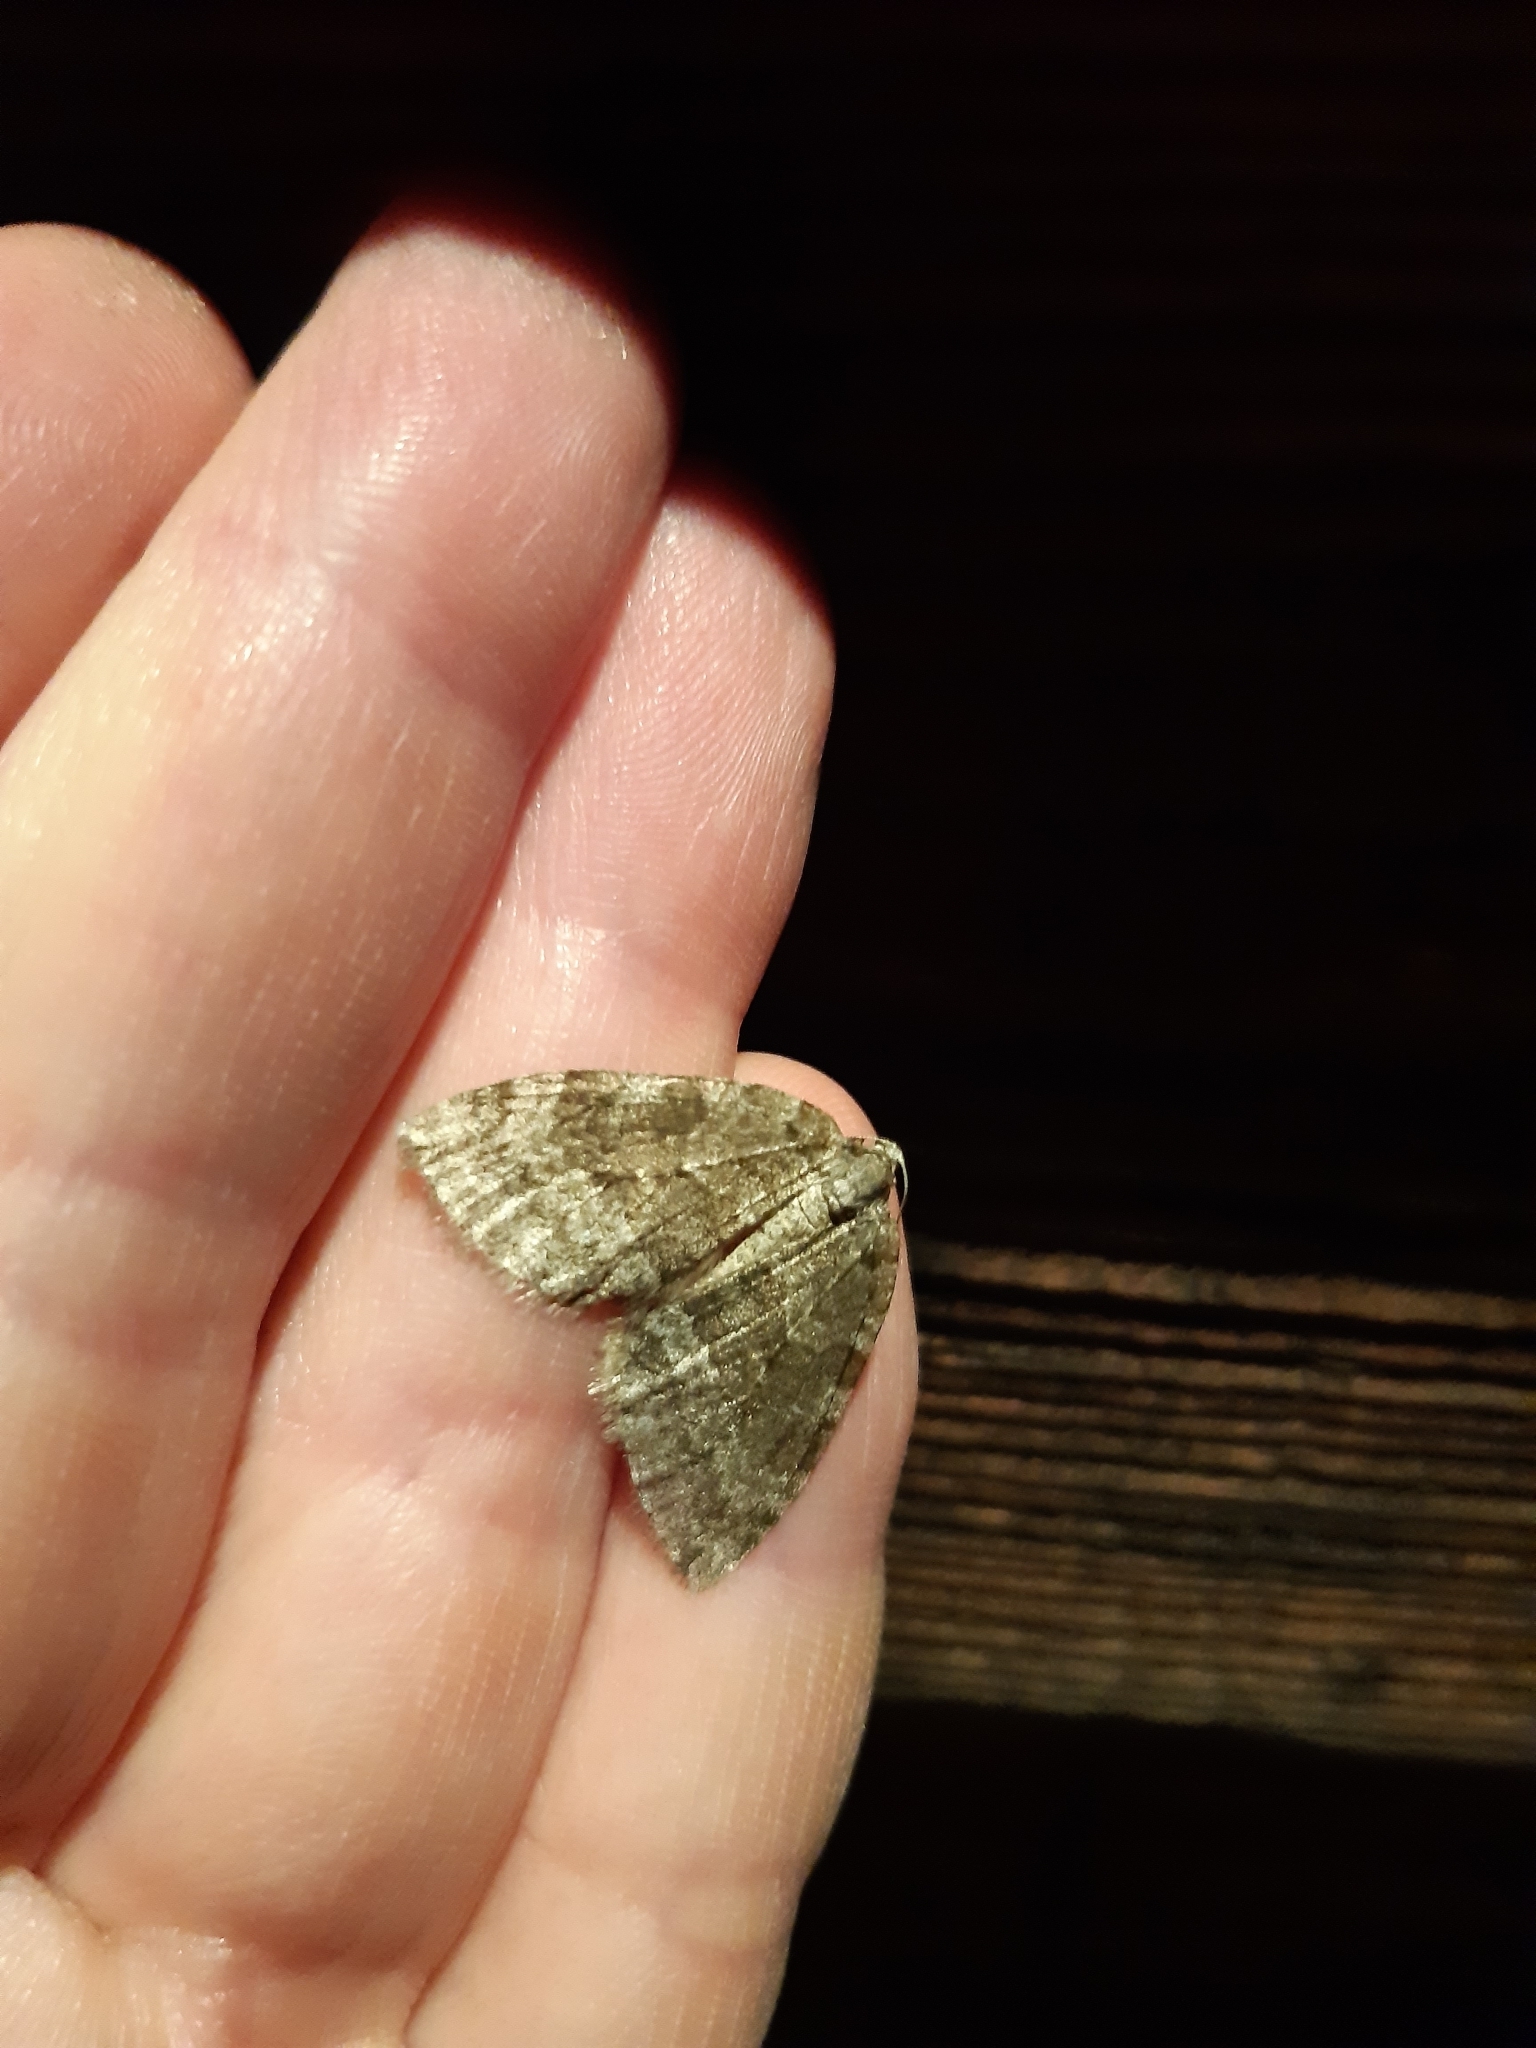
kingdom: Animalia
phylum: Arthropoda
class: Insecta
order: Lepidoptera
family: Geometridae
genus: Epirrita
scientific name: Epirrita
